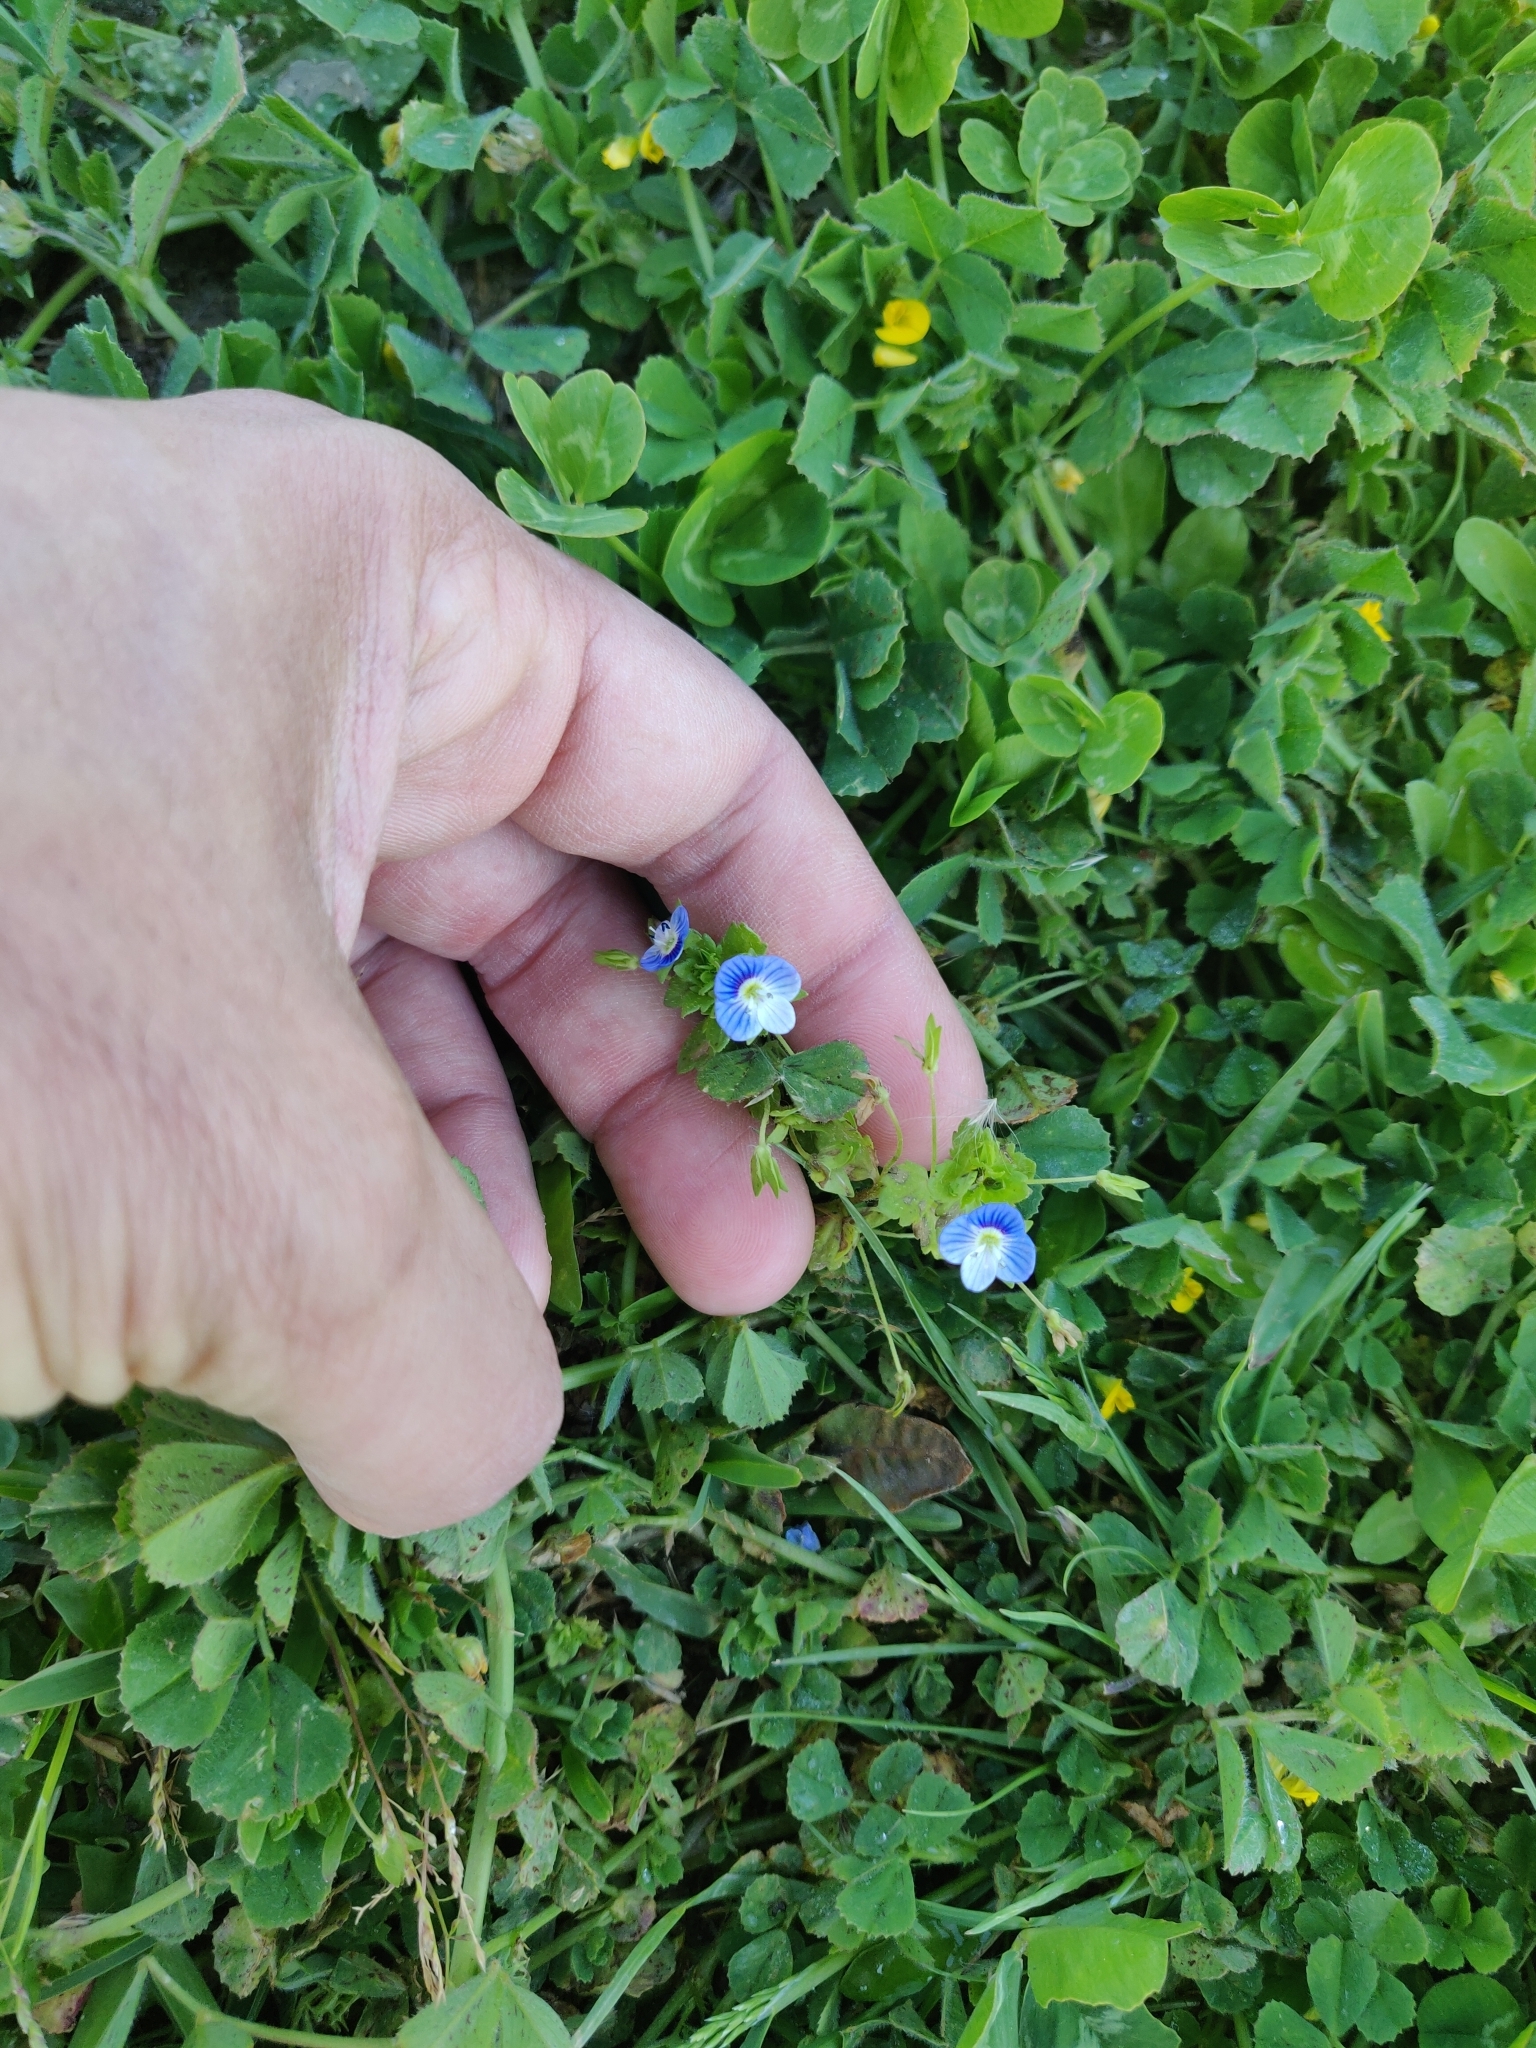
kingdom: Plantae
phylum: Tracheophyta
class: Magnoliopsida
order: Lamiales
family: Plantaginaceae
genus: Veronica
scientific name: Veronica persica
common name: Common field-speedwell
